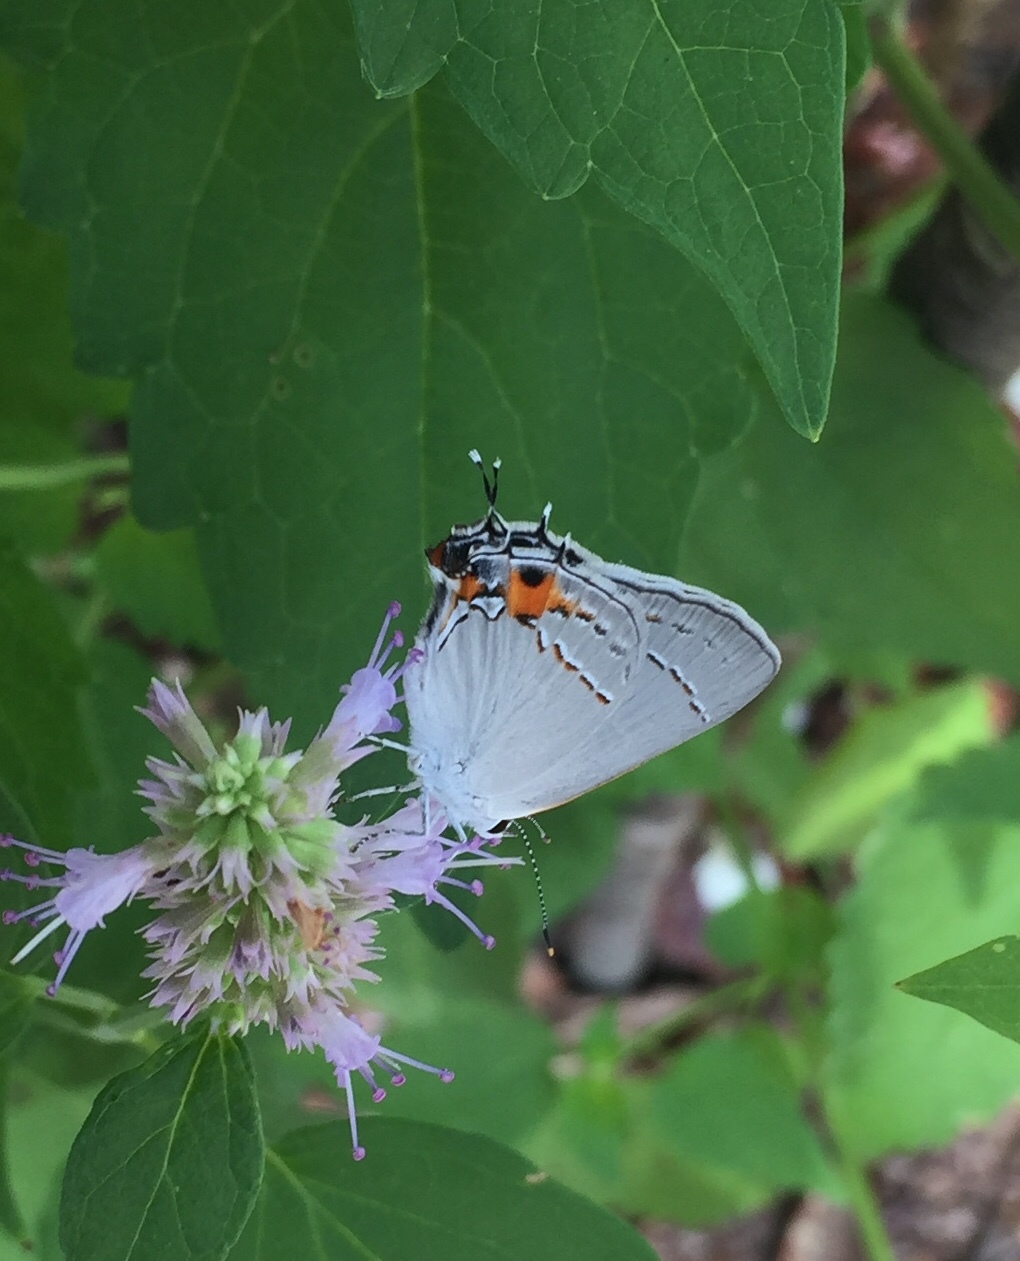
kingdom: Animalia
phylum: Arthropoda
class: Insecta
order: Lepidoptera
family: Lycaenidae
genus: Strymon
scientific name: Strymon melinus
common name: Gray hairstreak
